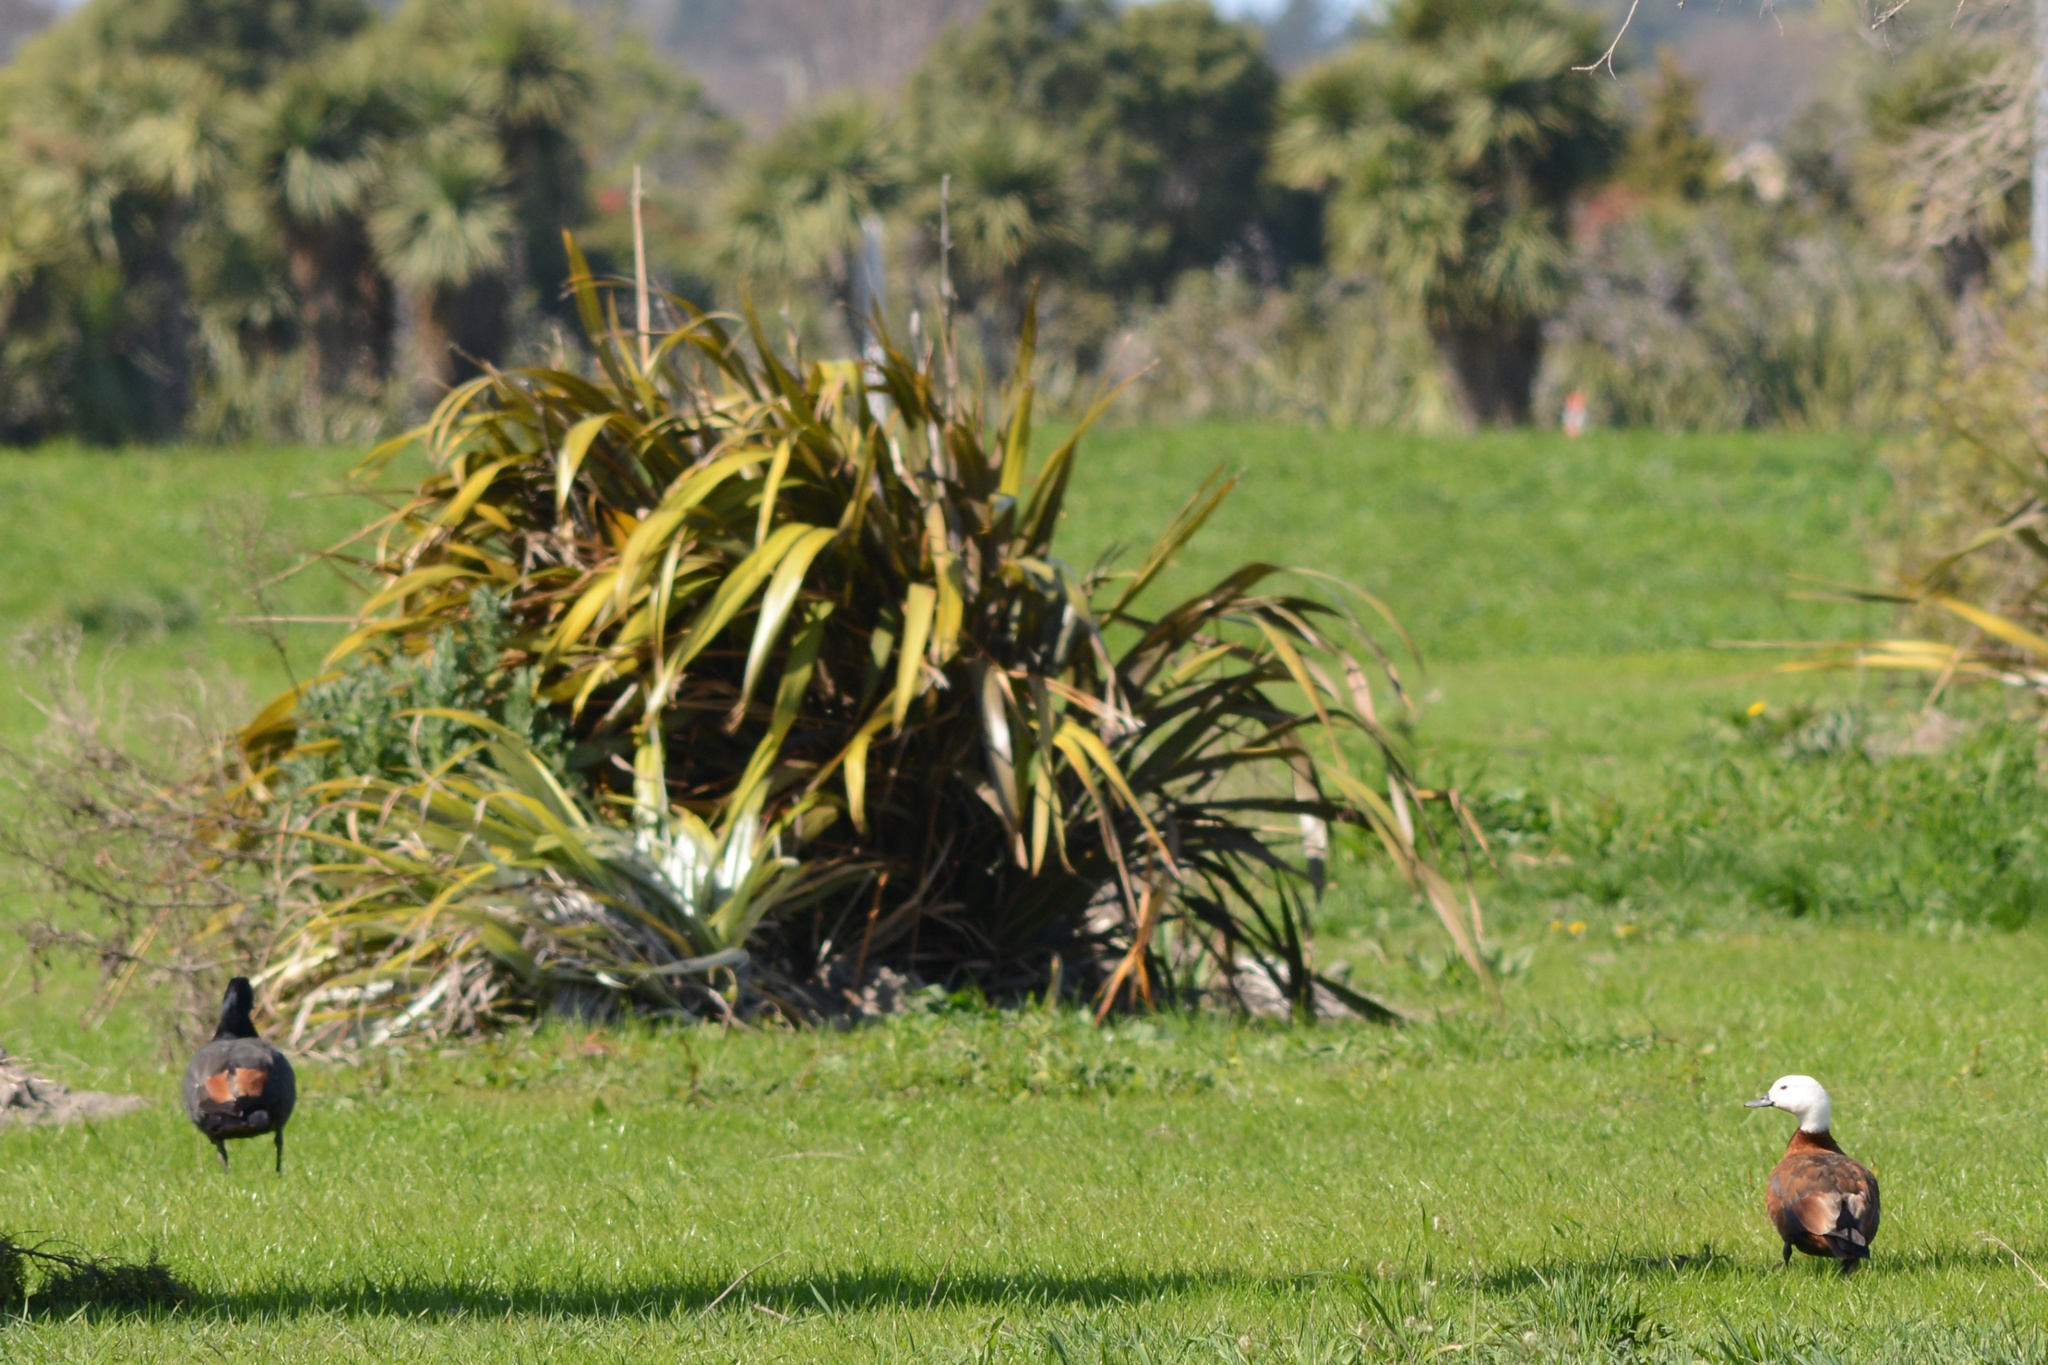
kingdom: Animalia
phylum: Chordata
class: Aves
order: Anseriformes
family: Anatidae
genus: Tadorna
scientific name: Tadorna variegata
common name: Paradise shelduck
